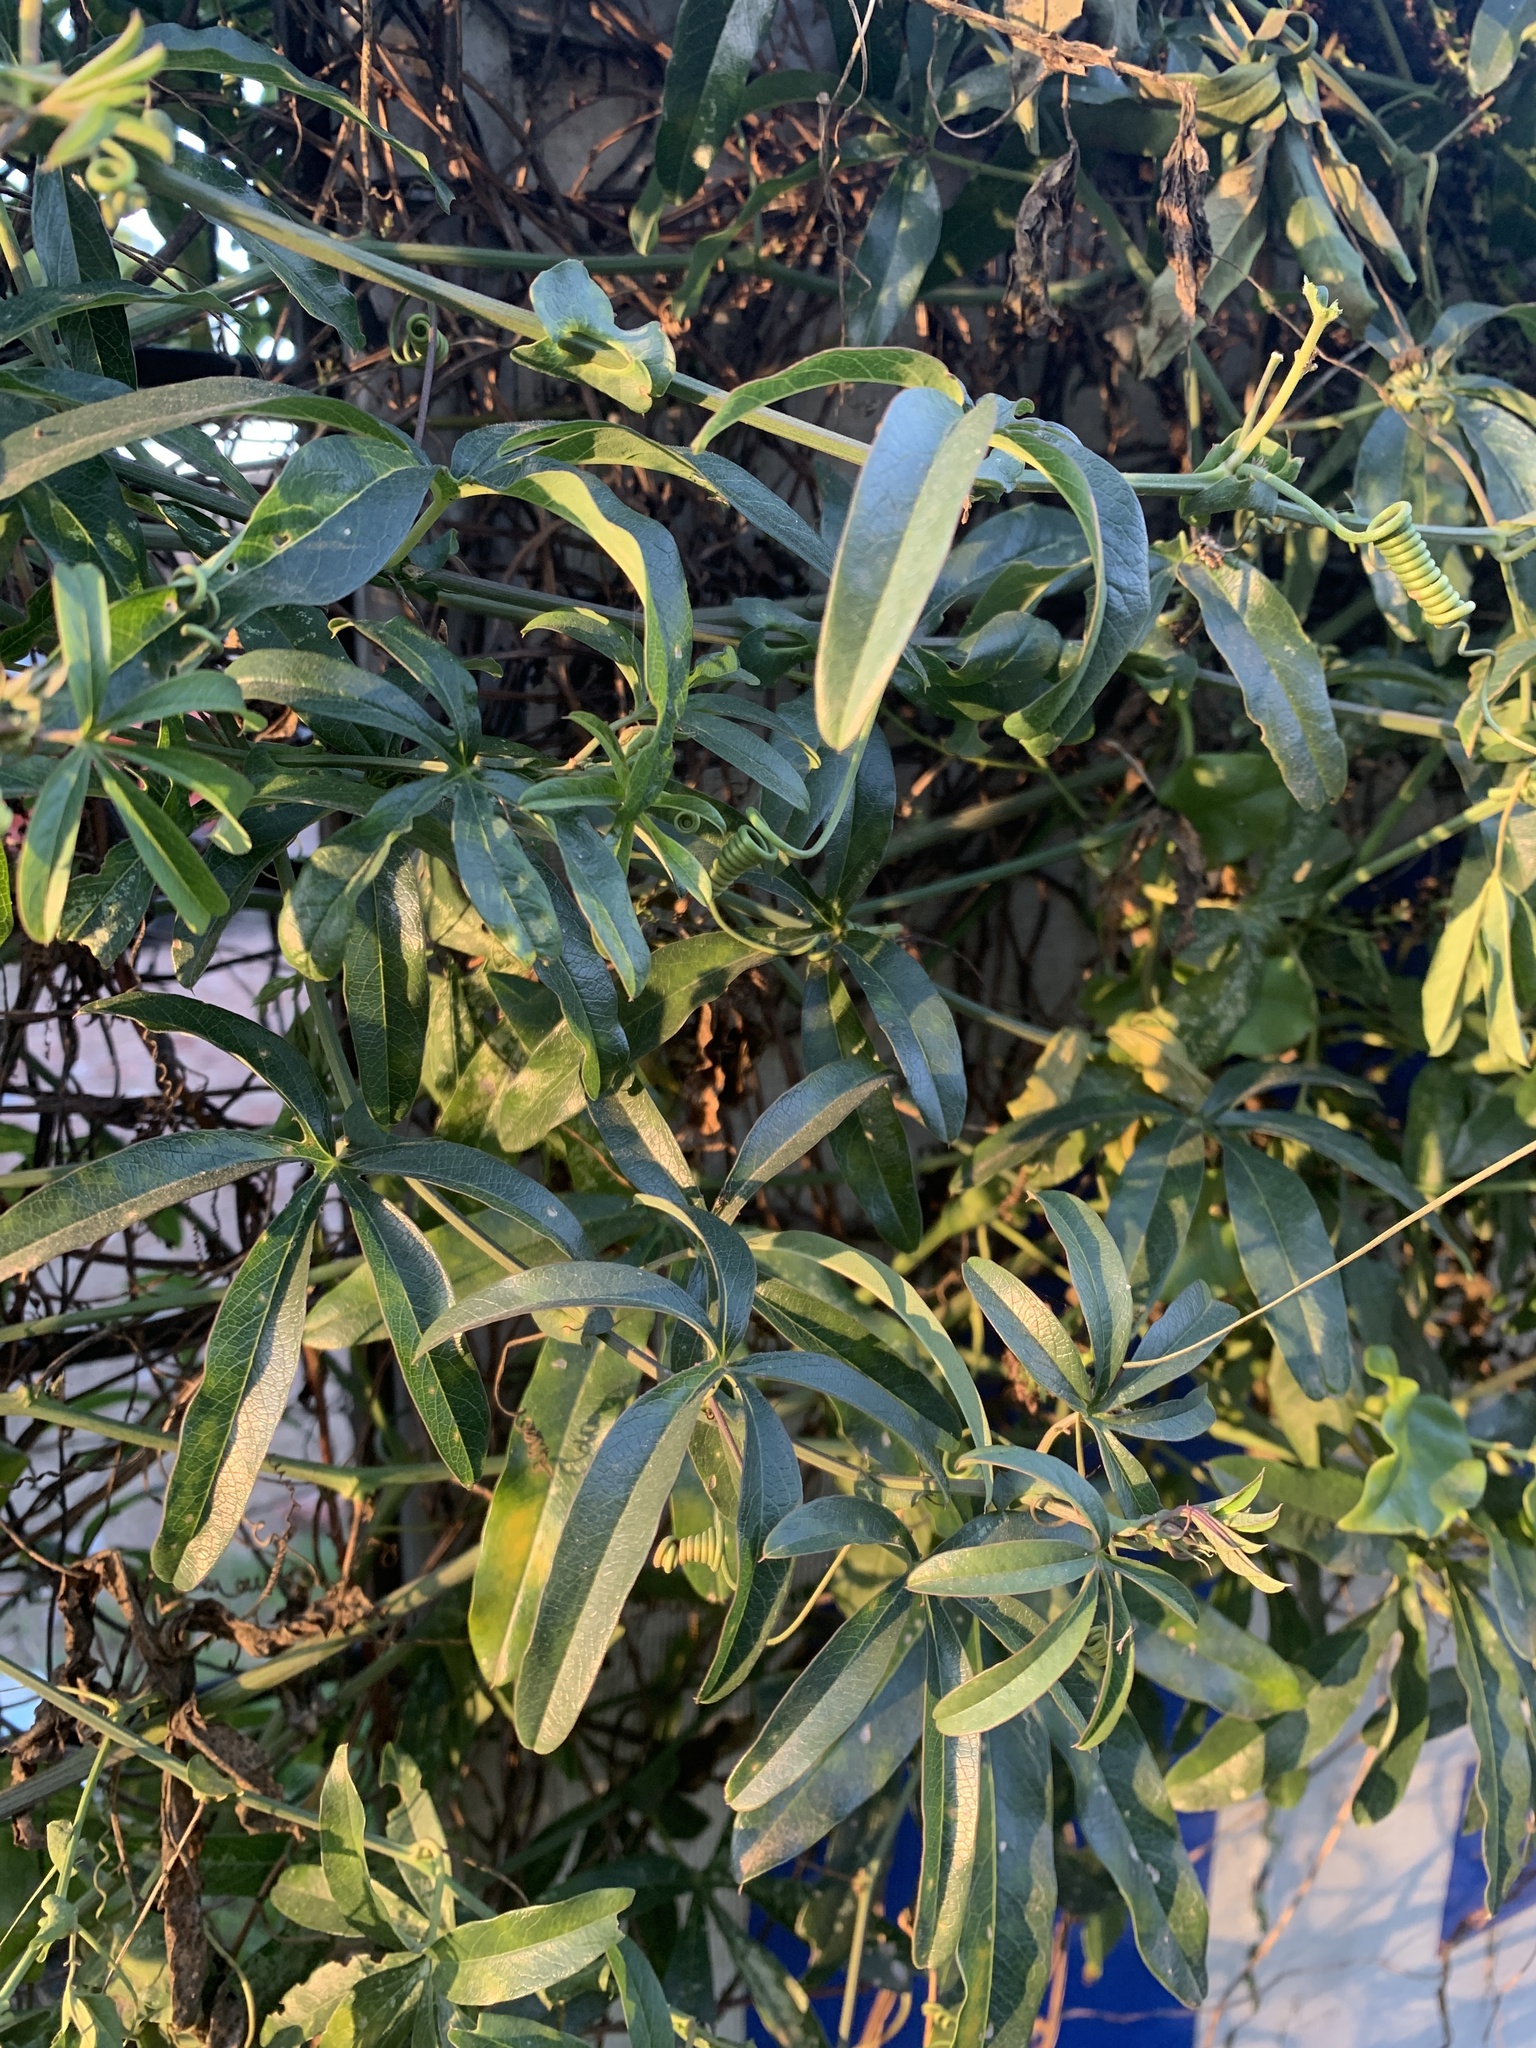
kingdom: Plantae
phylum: Tracheophyta
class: Magnoliopsida
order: Malpighiales
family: Passifloraceae
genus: Passiflora
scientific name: Passiflora caerulea
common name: Blue passionflower
